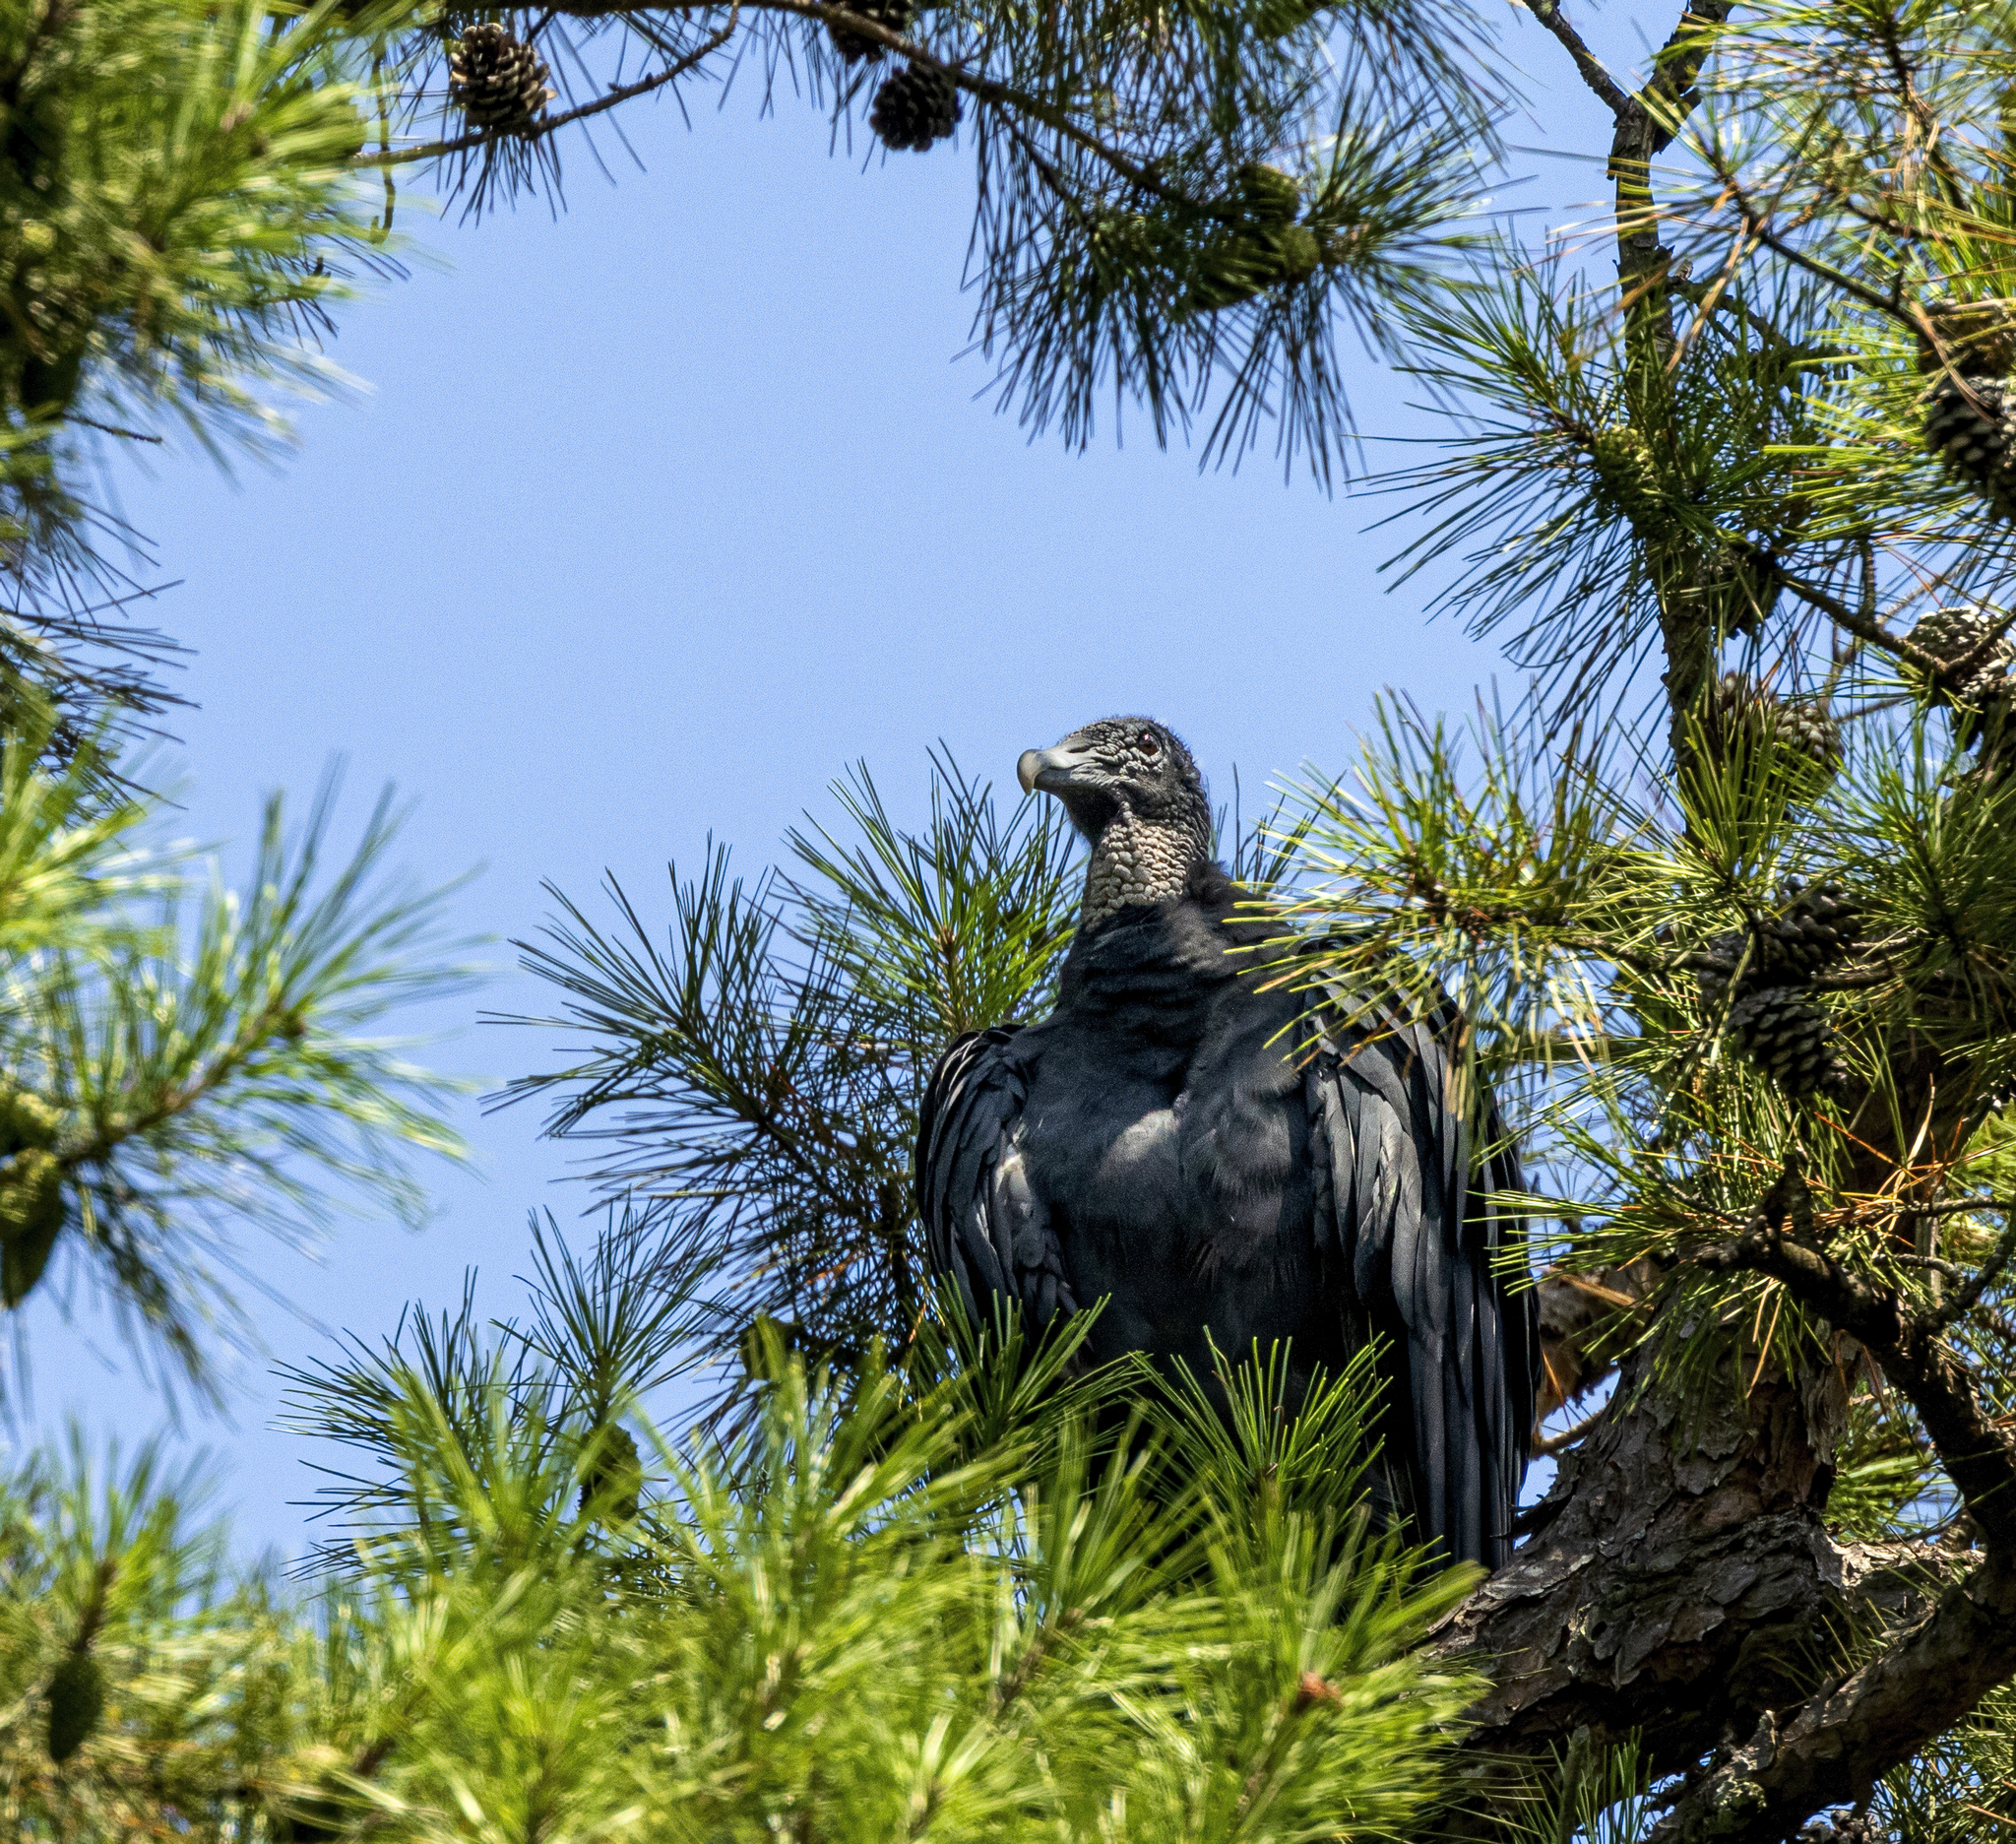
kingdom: Animalia
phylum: Chordata
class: Aves
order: Accipitriformes
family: Cathartidae
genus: Coragyps
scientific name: Coragyps atratus
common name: Black vulture
